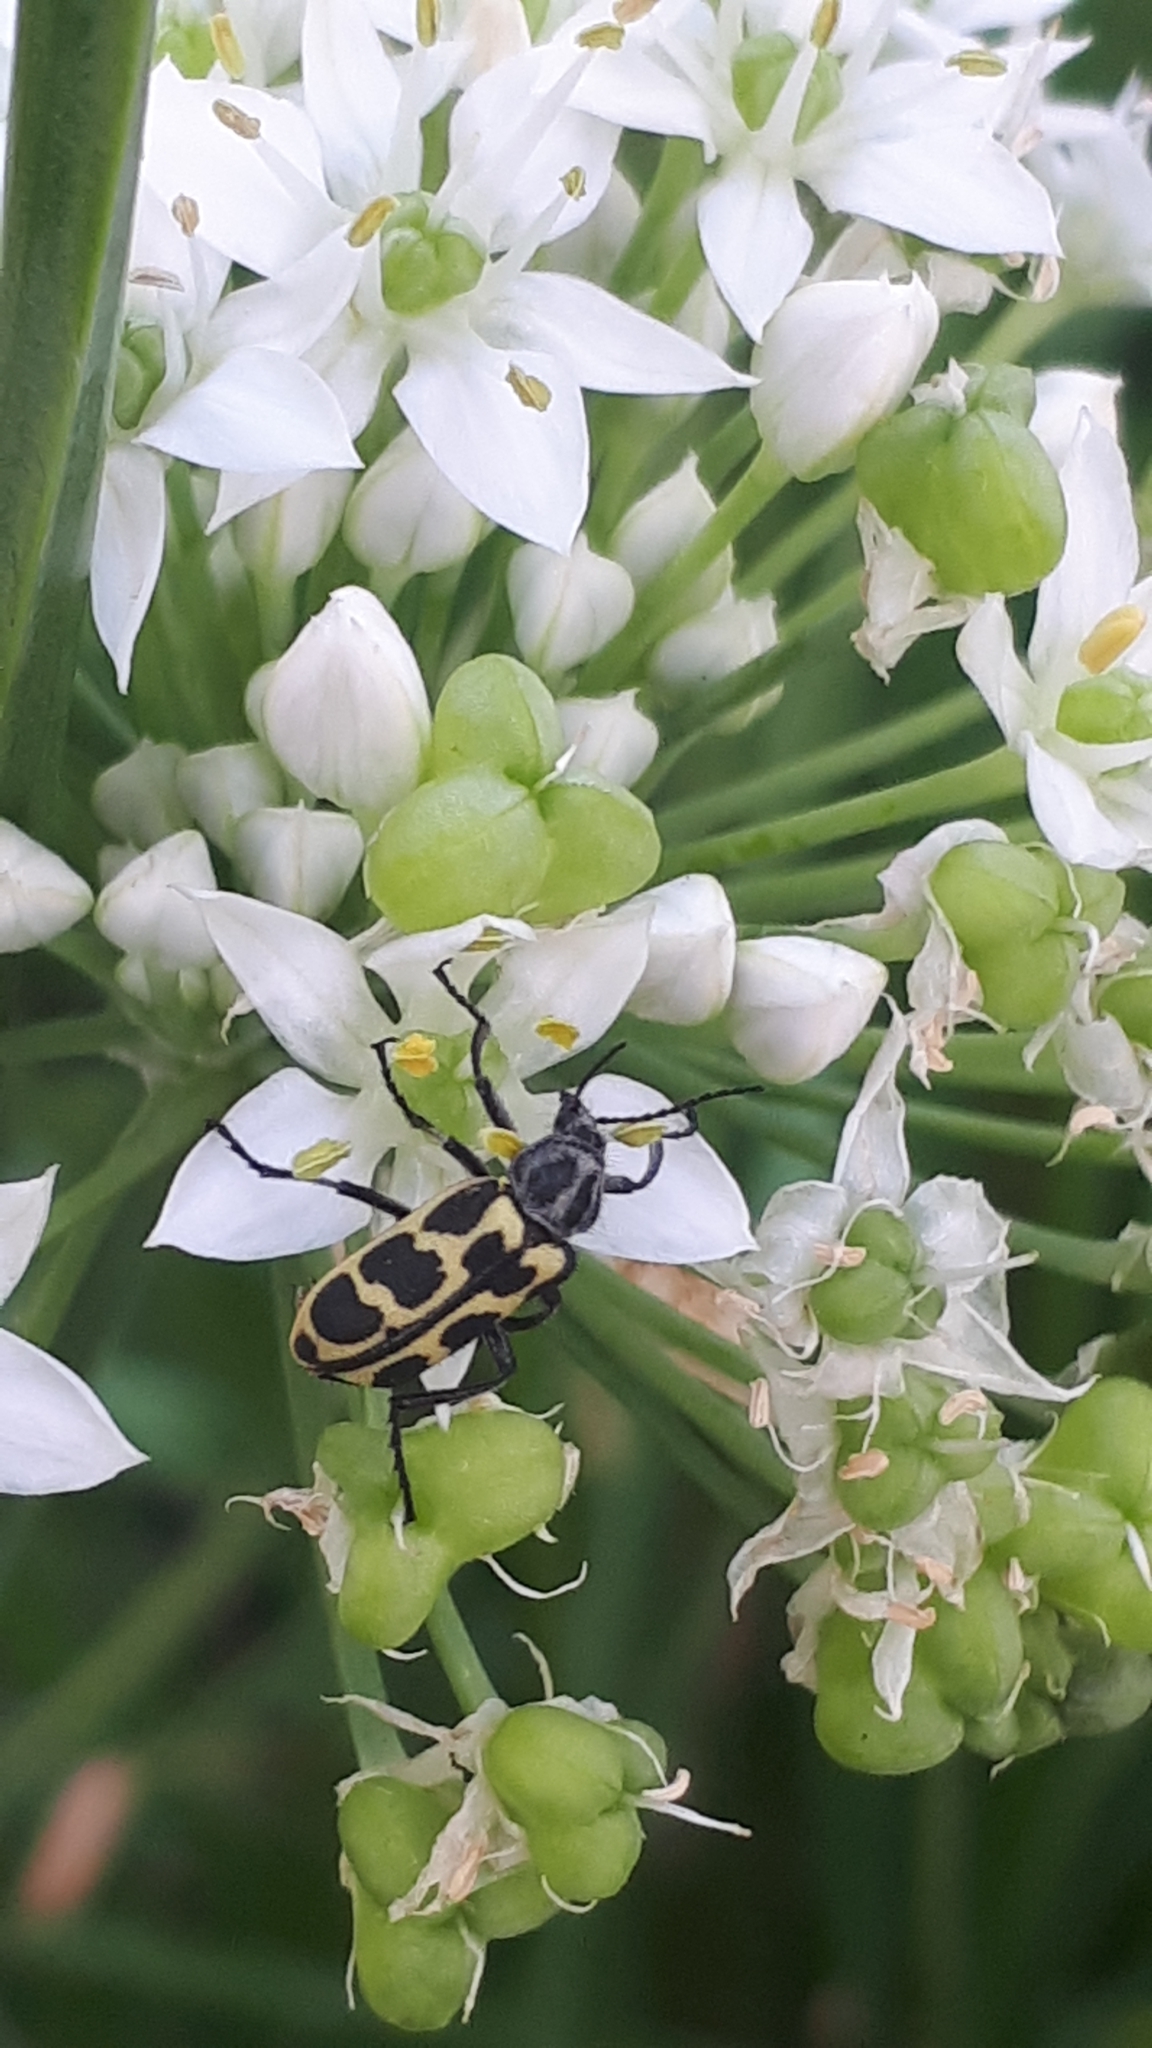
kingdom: Animalia
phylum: Arthropoda
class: Insecta
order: Coleoptera
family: Melyridae
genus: Astylus
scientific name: Astylus atromaculatus
